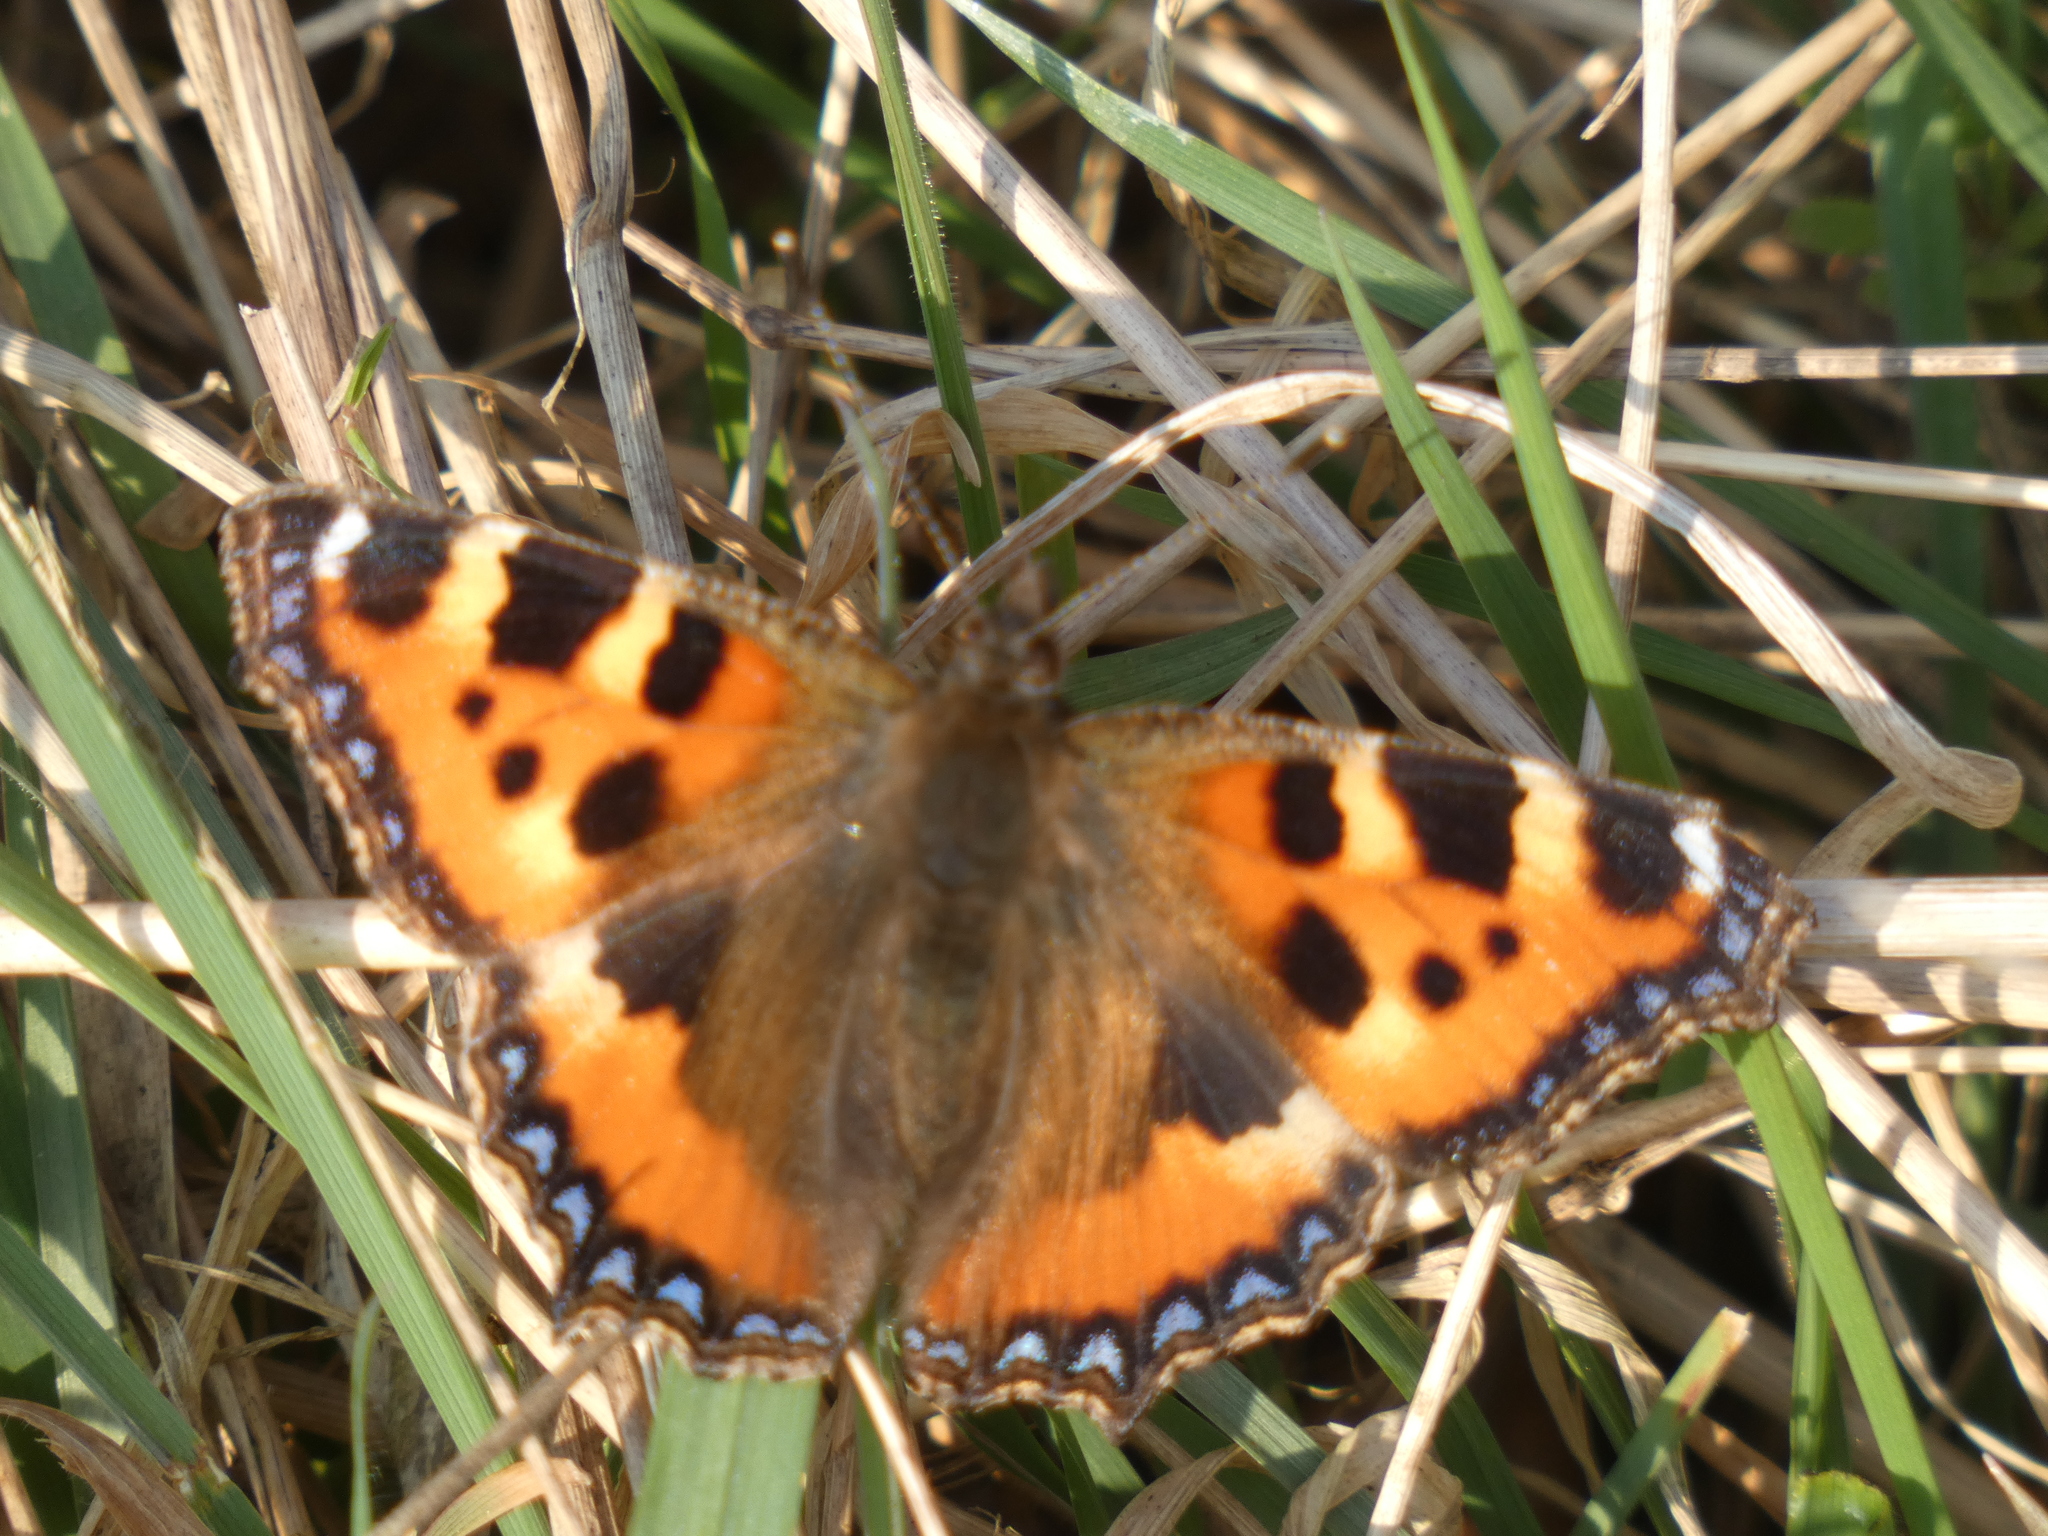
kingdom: Animalia
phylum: Arthropoda
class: Insecta
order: Lepidoptera
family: Nymphalidae
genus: Aglais
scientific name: Aglais urticae
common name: Small tortoiseshell
